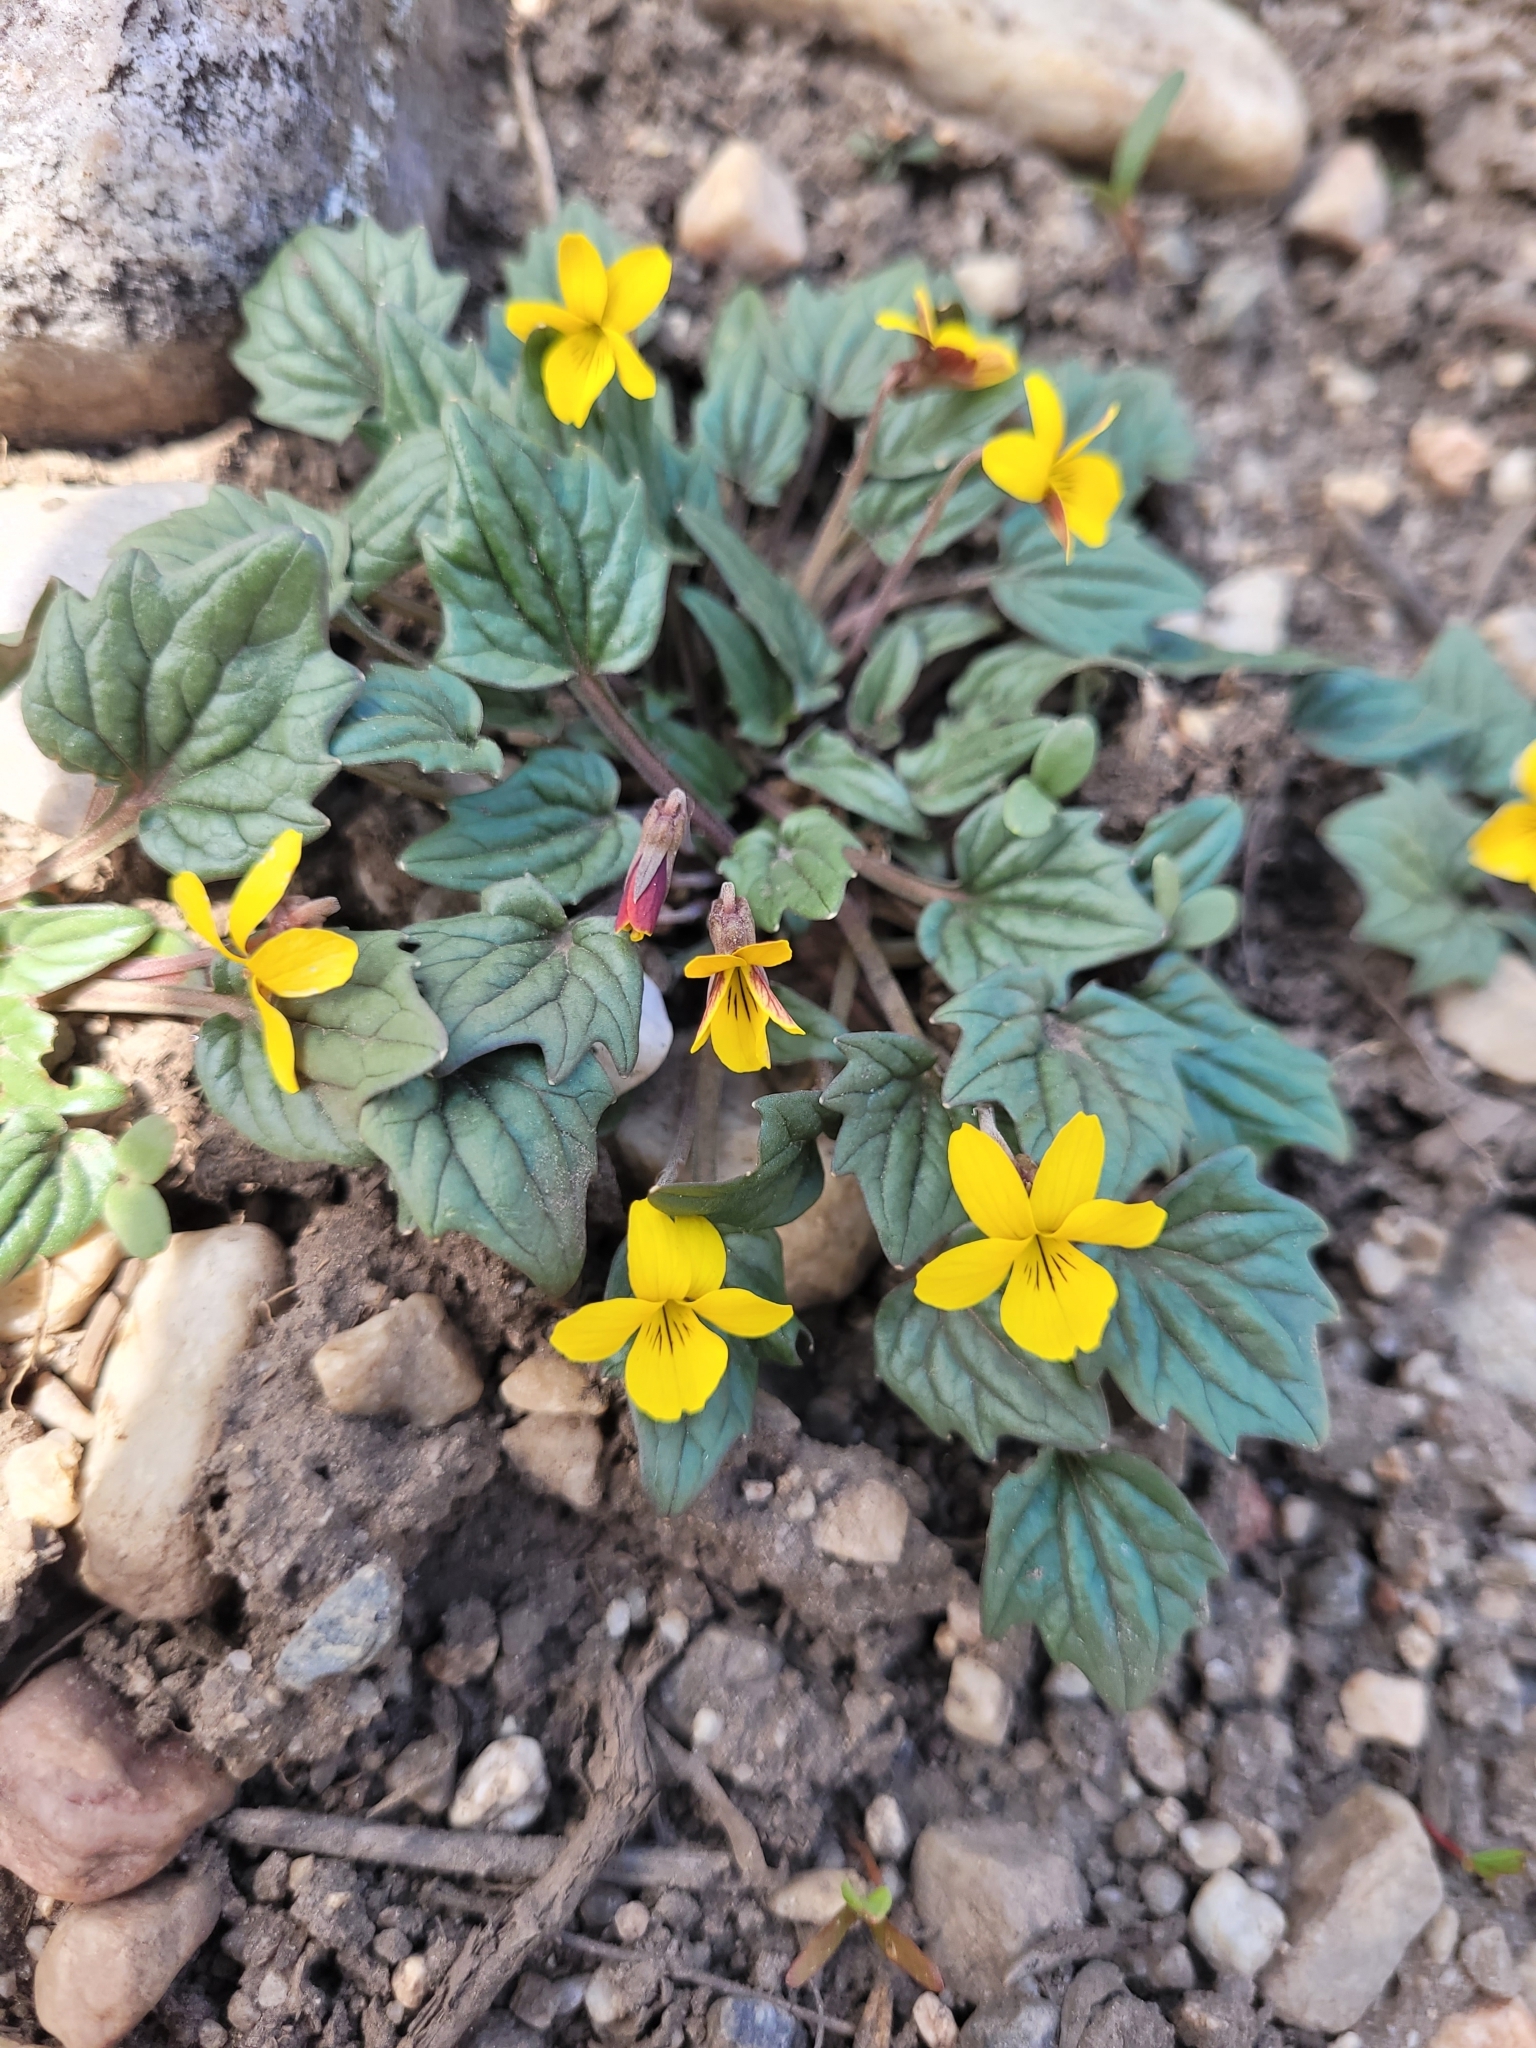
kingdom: Plantae
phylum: Tracheophyta
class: Magnoliopsida
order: Malpighiales
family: Violaceae
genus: Viola
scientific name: Viola purpurea
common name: Pine violet
